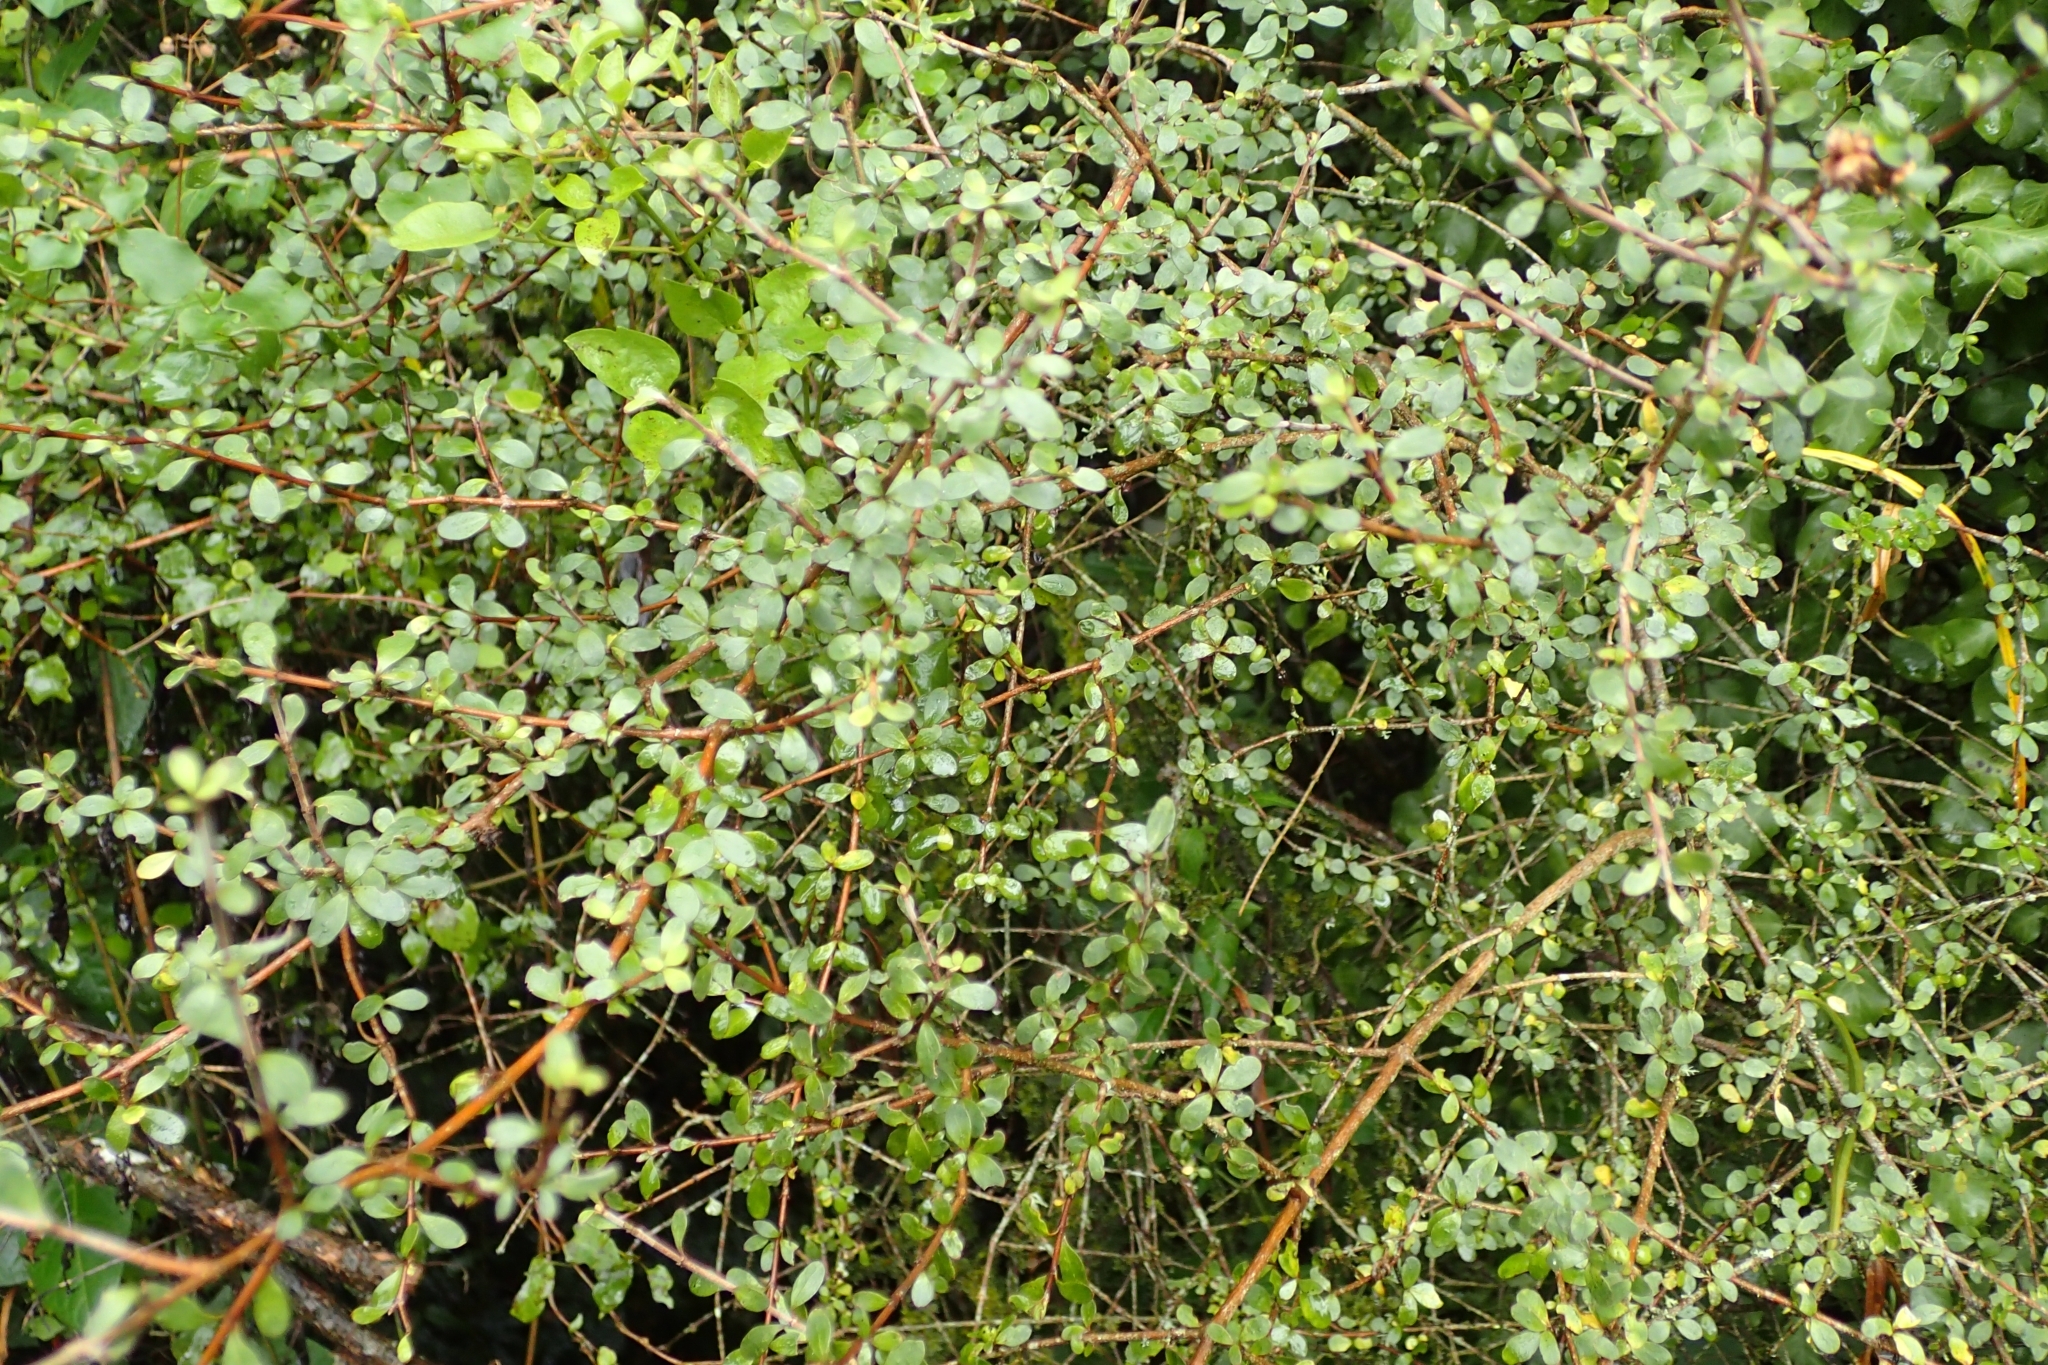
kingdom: Plantae
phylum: Tracheophyta
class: Magnoliopsida
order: Gentianales
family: Rubiaceae
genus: Coprosma
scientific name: Coprosma rigida
